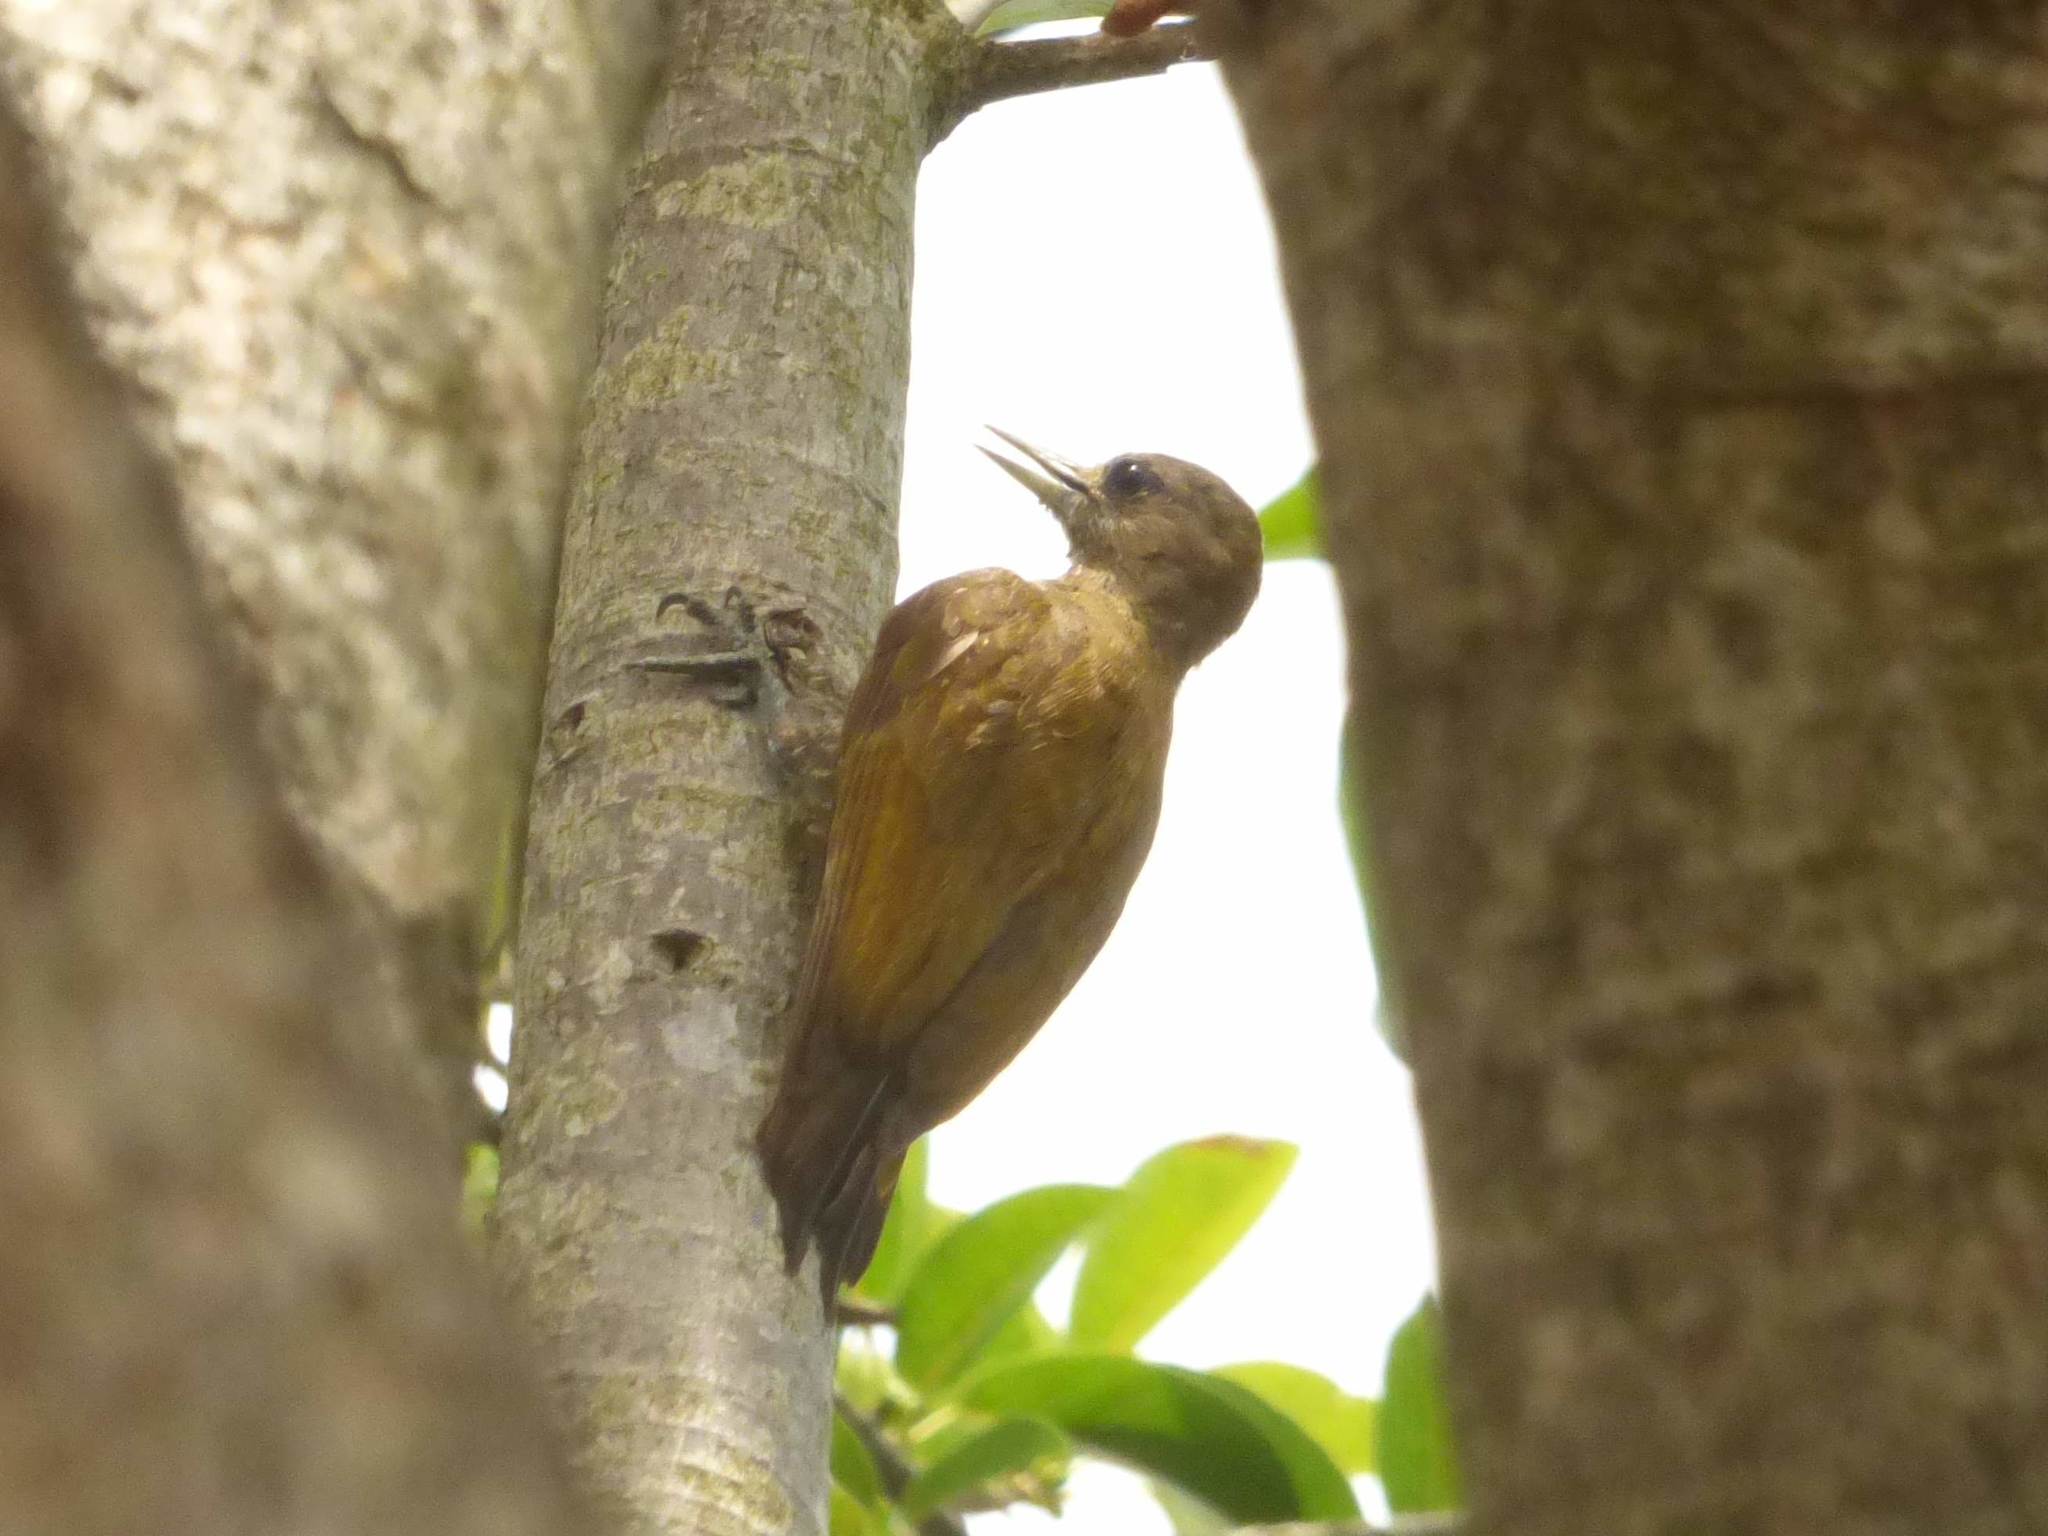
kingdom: Animalia
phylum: Chordata
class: Aves
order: Piciformes
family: Picidae
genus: Veniliornis
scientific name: Veniliornis passerinus
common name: Little woodpecker
